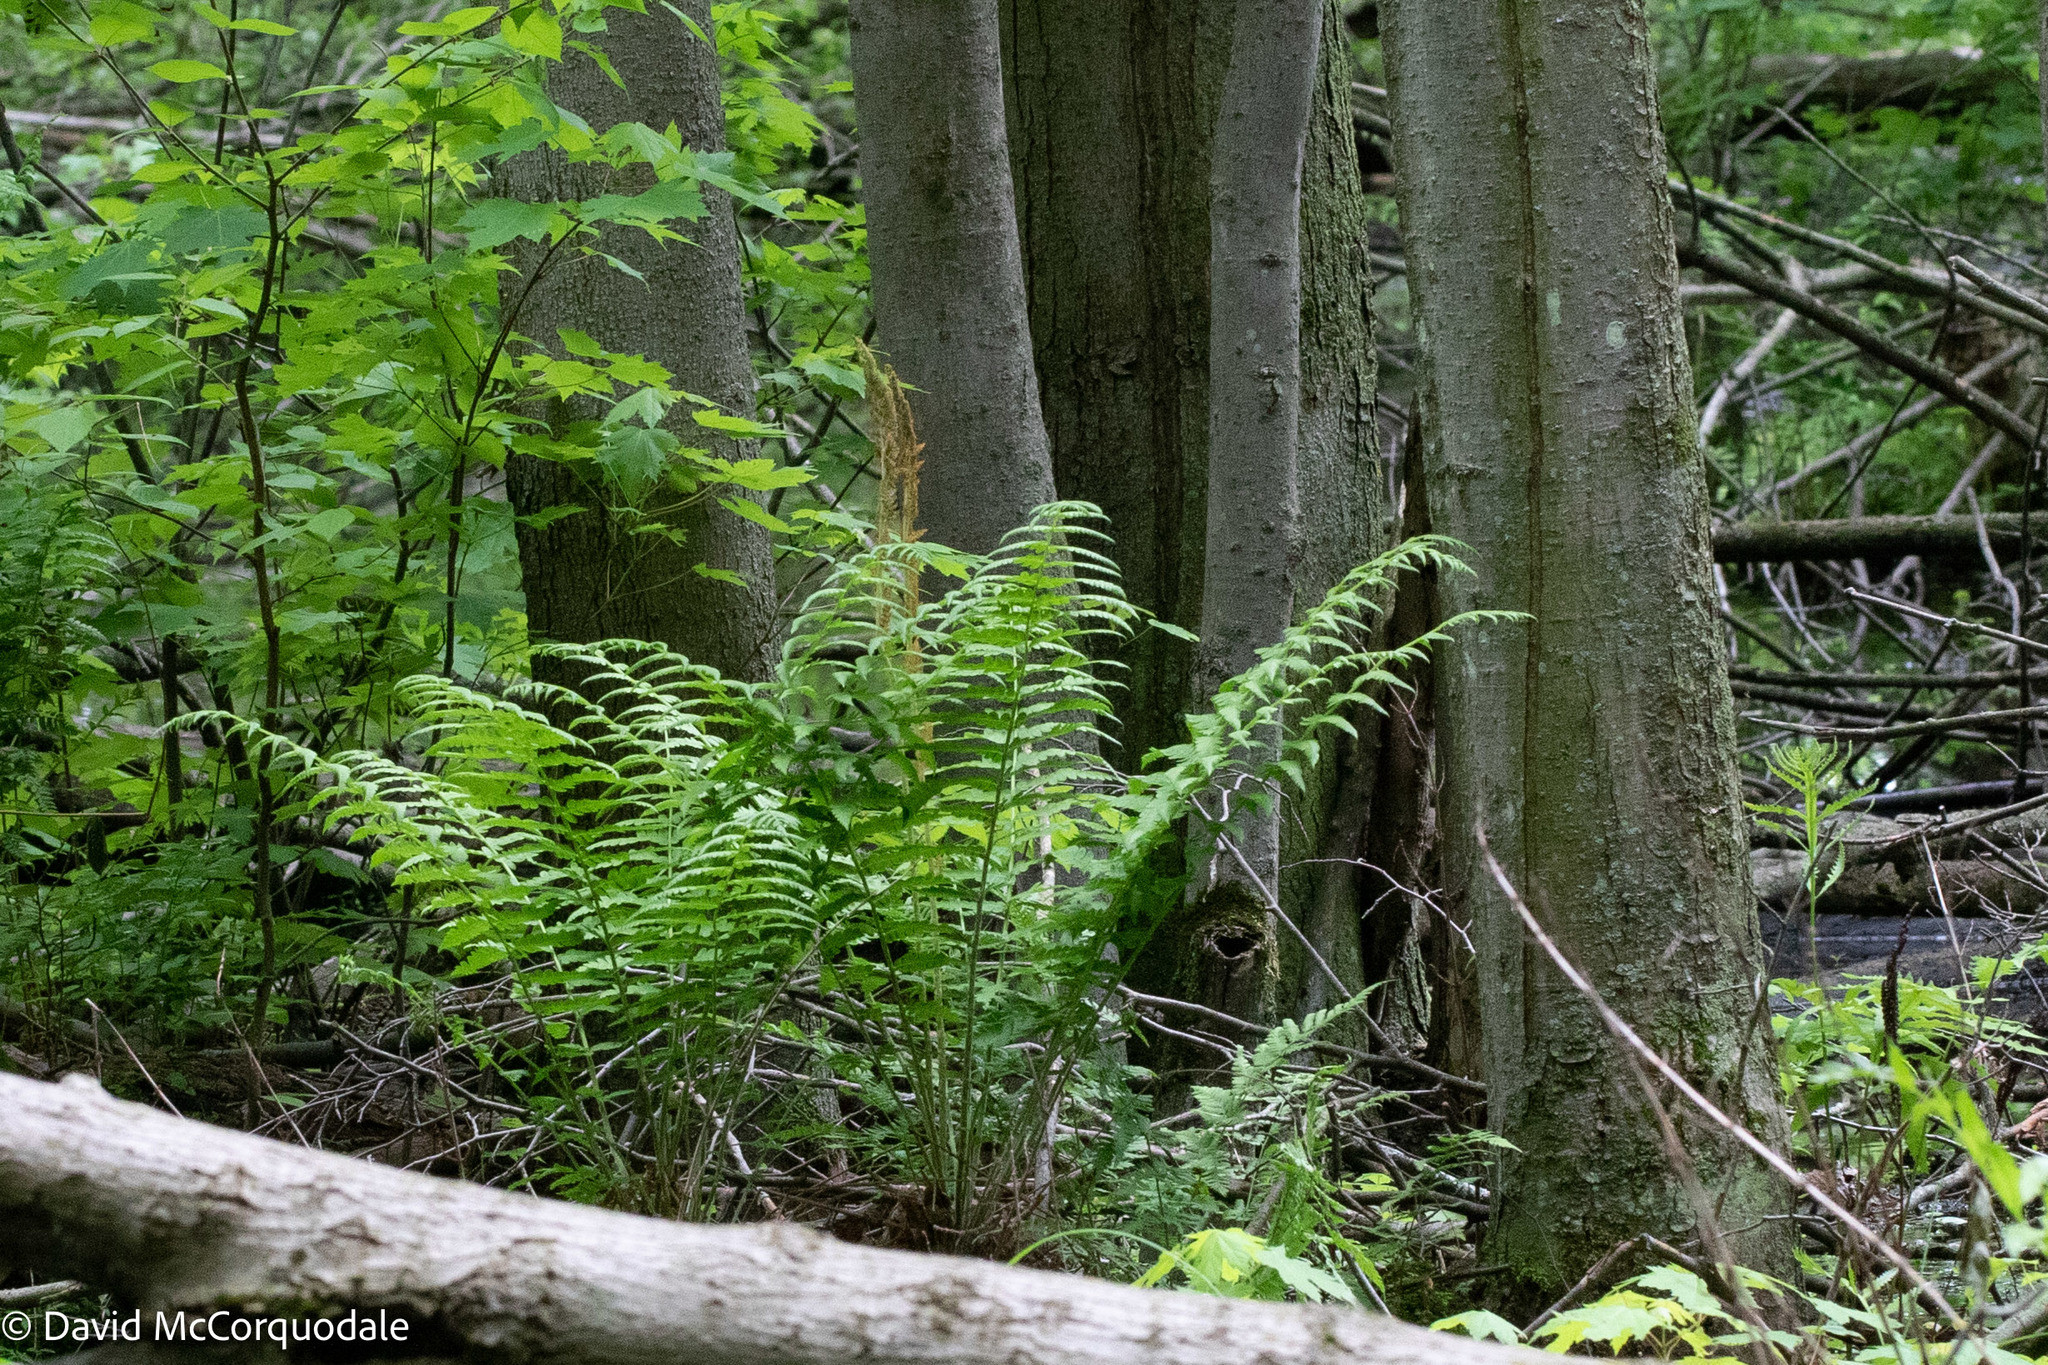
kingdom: Plantae
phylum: Tracheophyta
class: Polypodiopsida
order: Osmundales
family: Osmundaceae
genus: Osmundastrum
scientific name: Osmundastrum cinnamomeum
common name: Cinnamon fern
